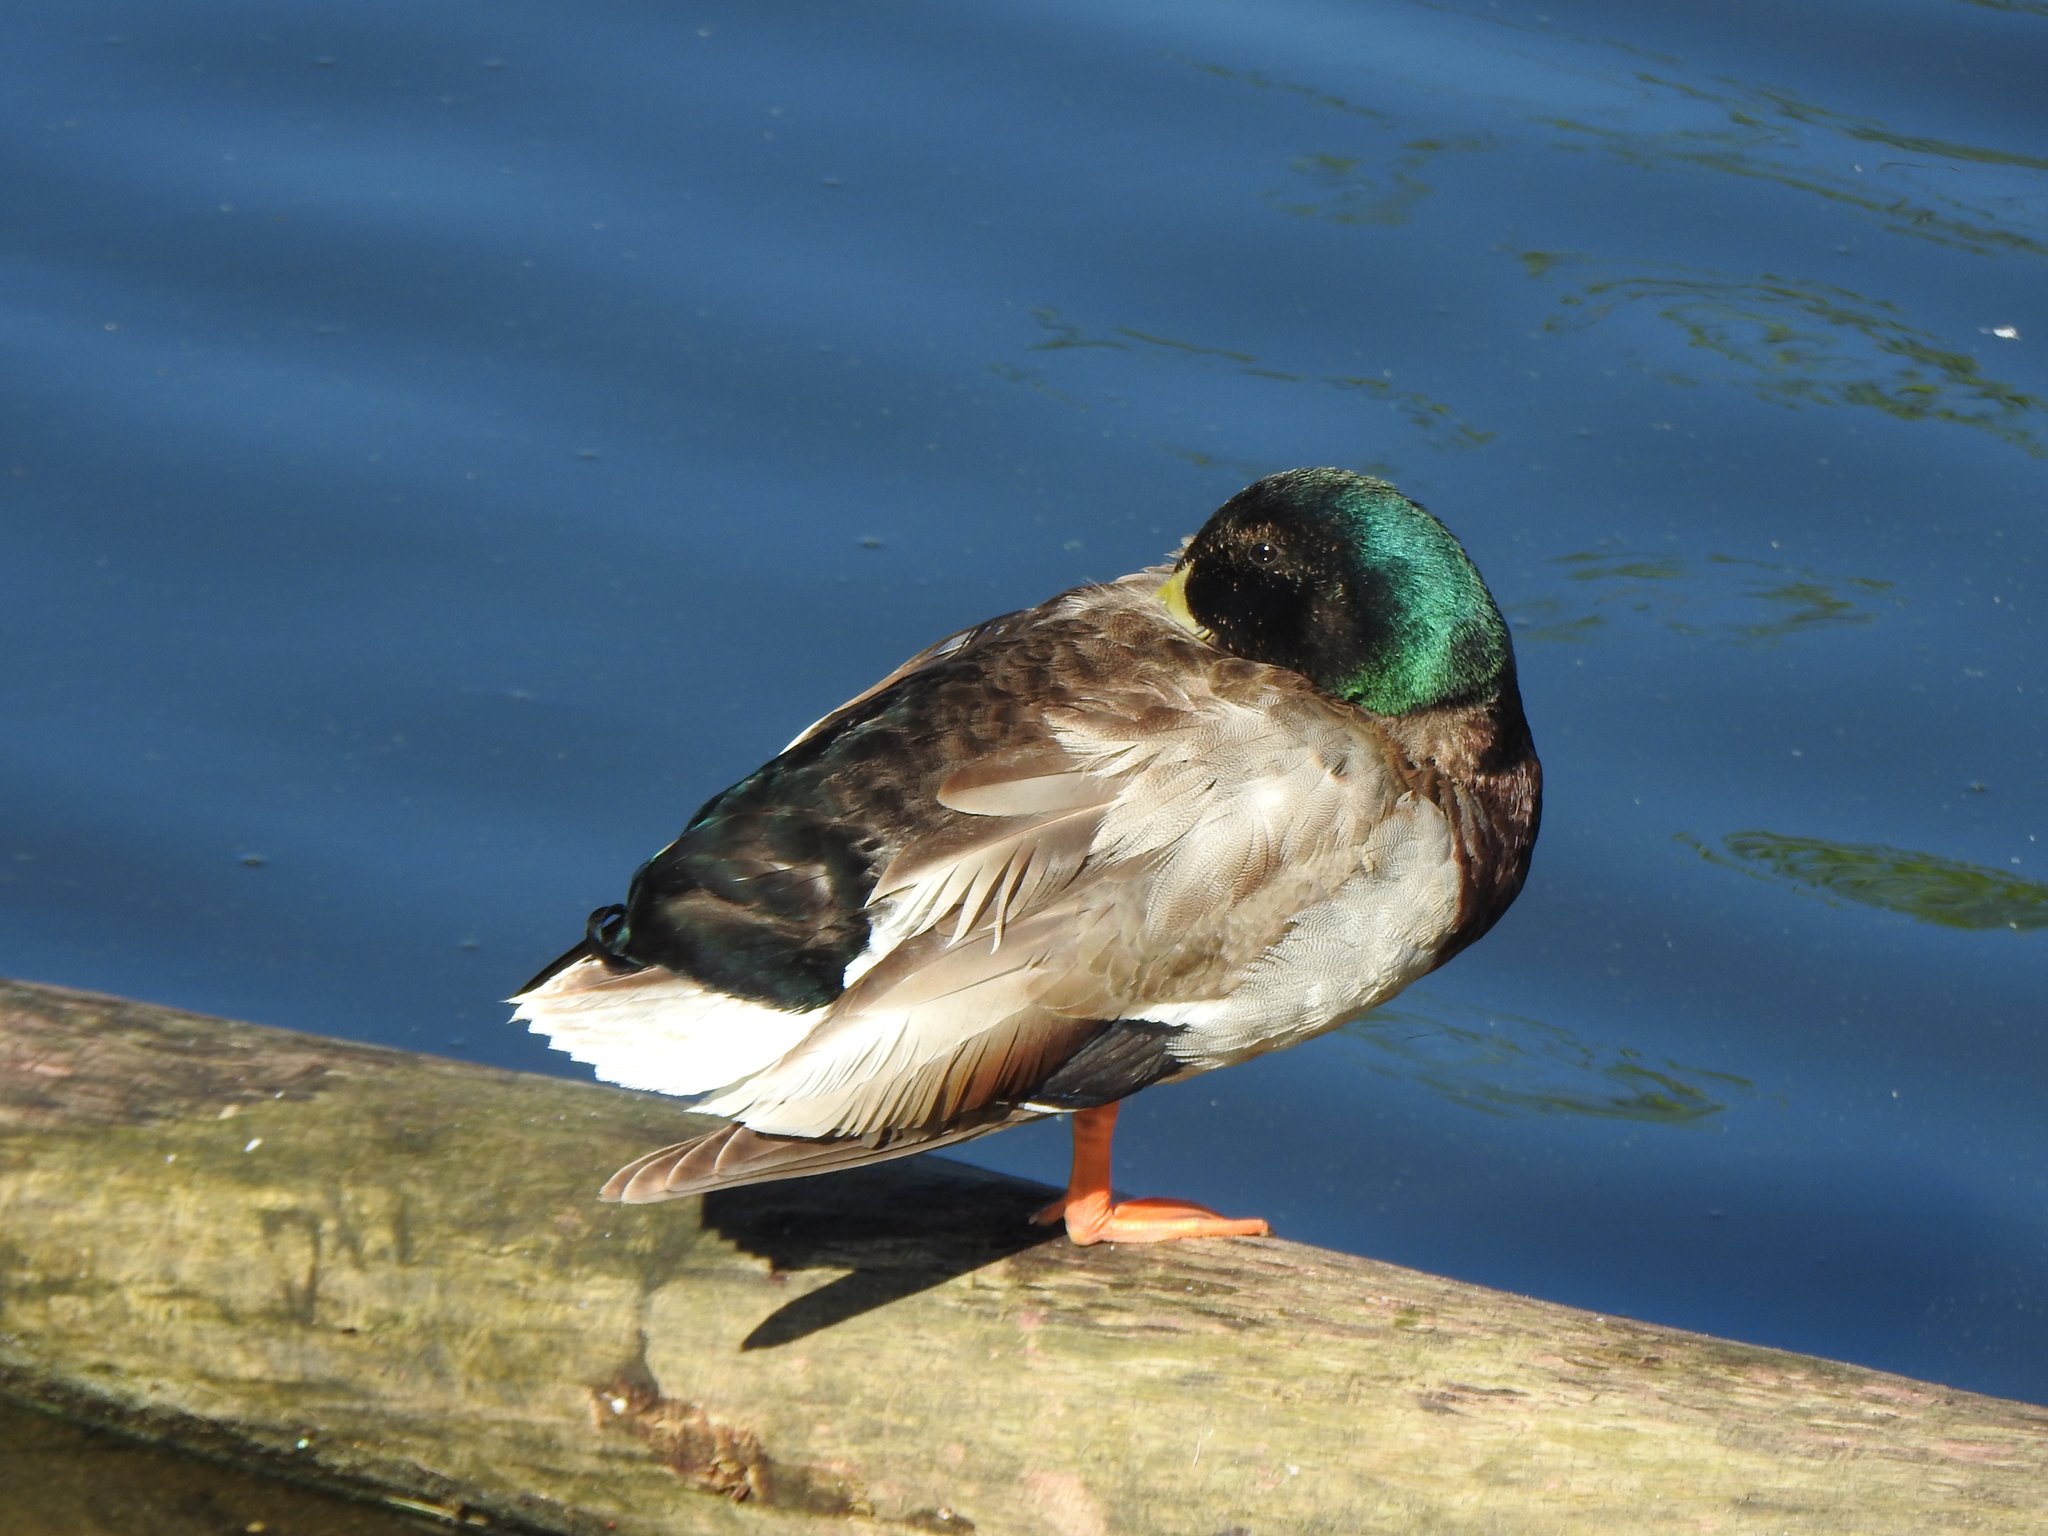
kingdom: Animalia
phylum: Chordata
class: Aves
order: Anseriformes
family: Anatidae
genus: Anas
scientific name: Anas platyrhynchos
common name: Mallard
